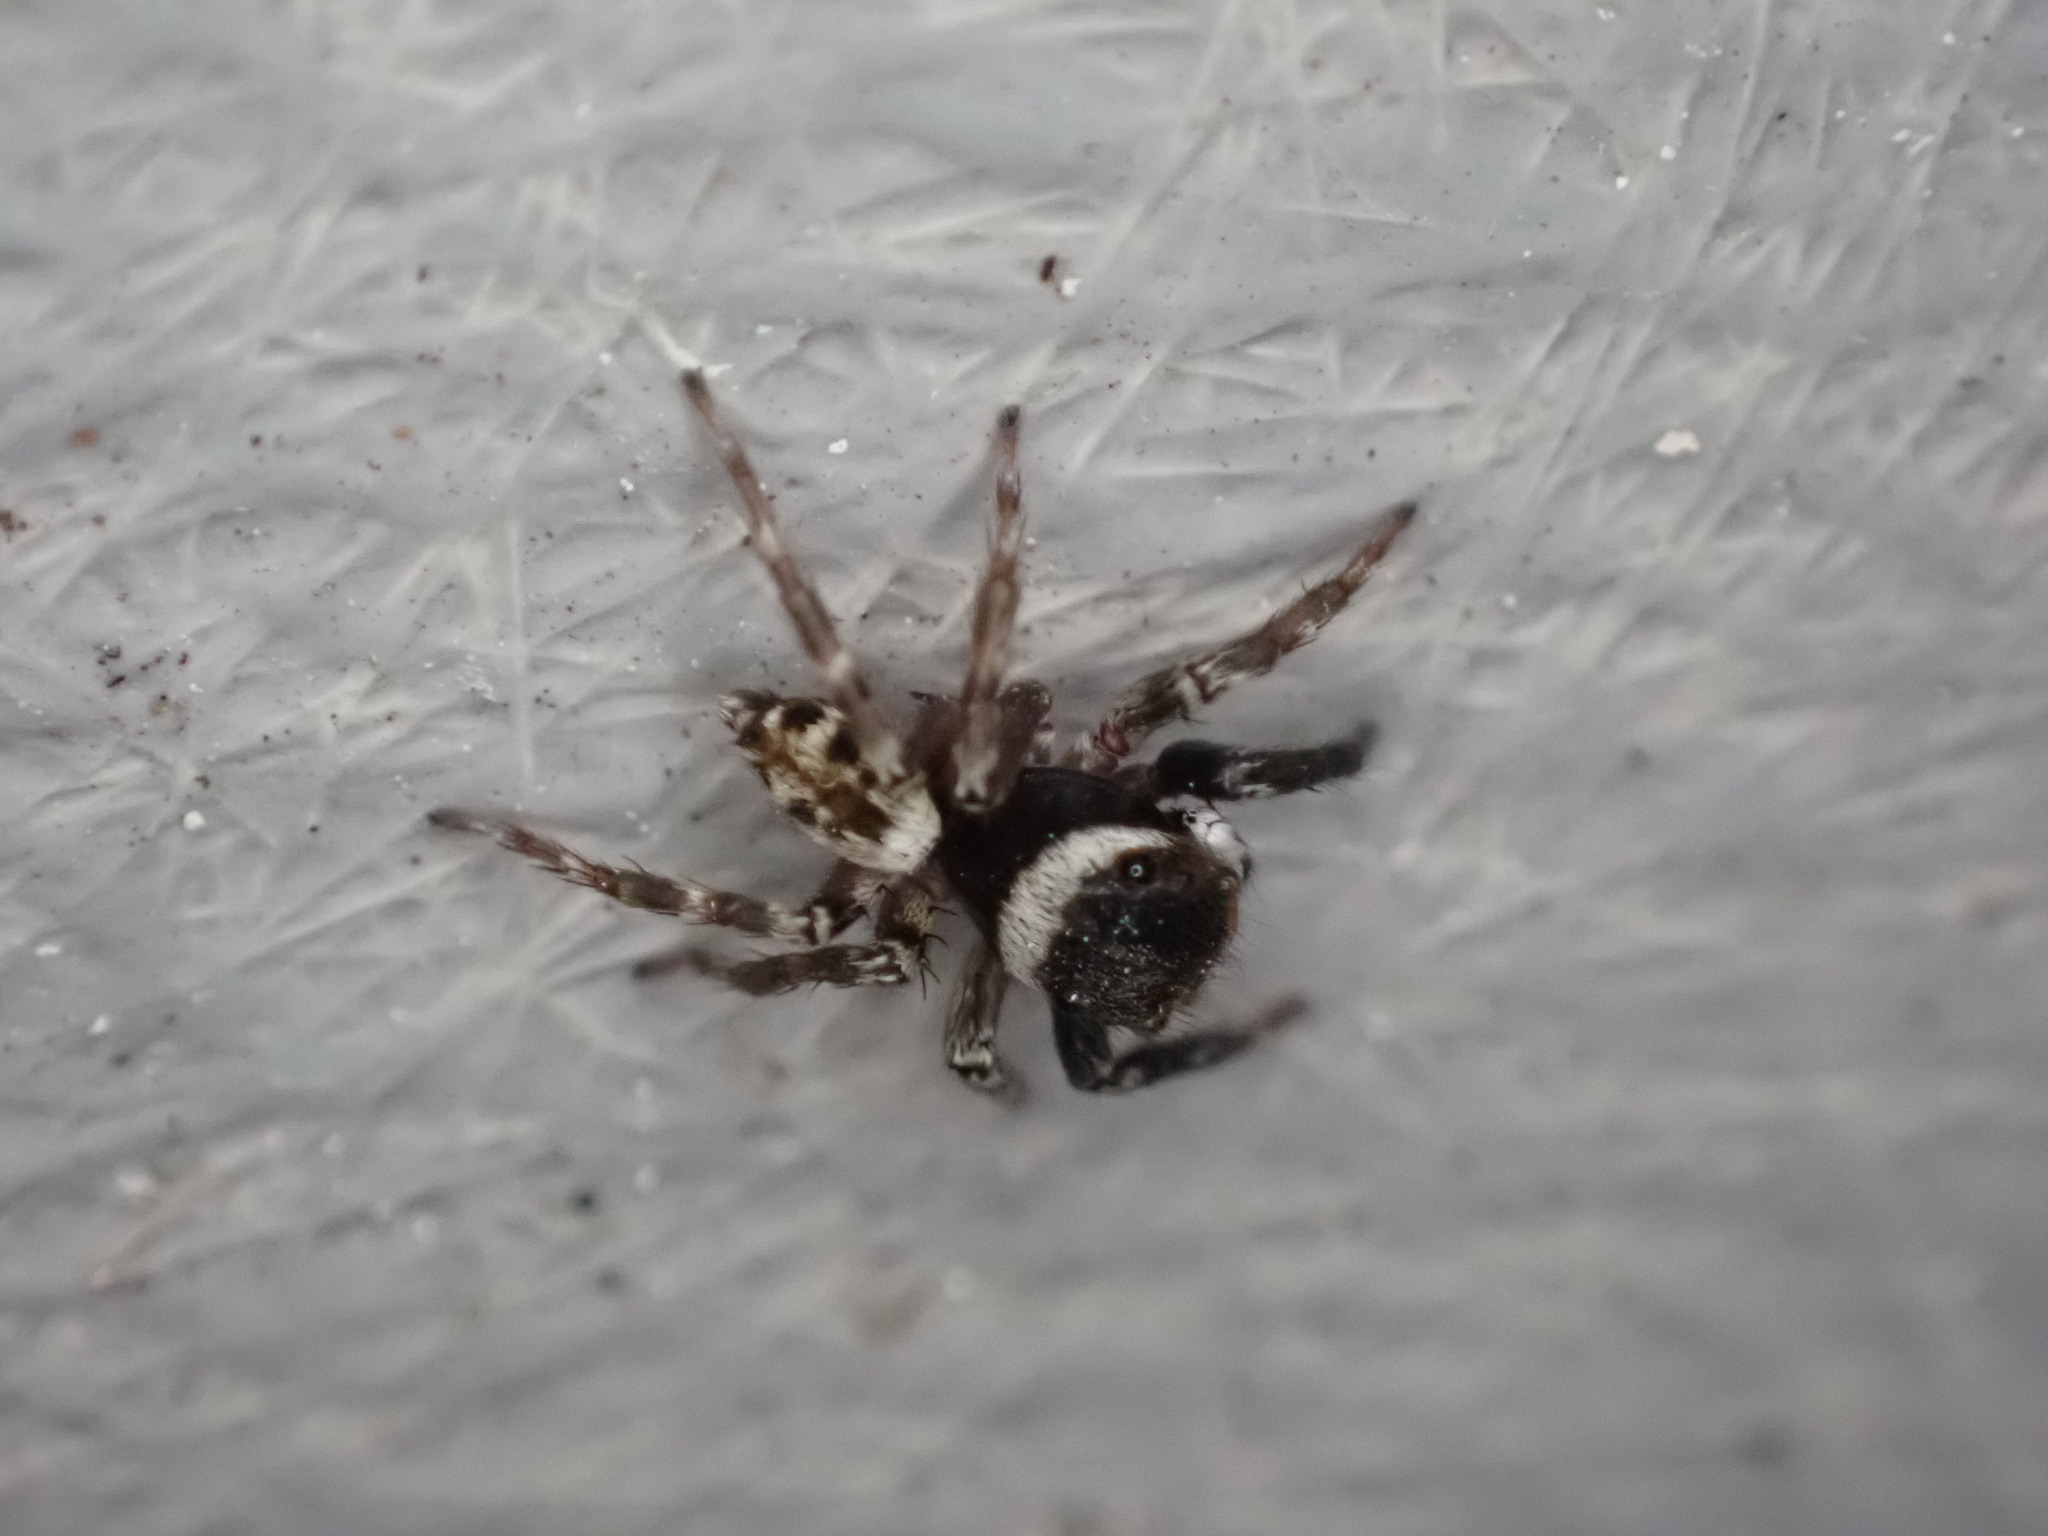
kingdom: Animalia
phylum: Arthropoda
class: Arachnida
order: Araneae
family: Salticidae
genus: Hasarius
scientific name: Hasarius adansoni
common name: Jumping spider
